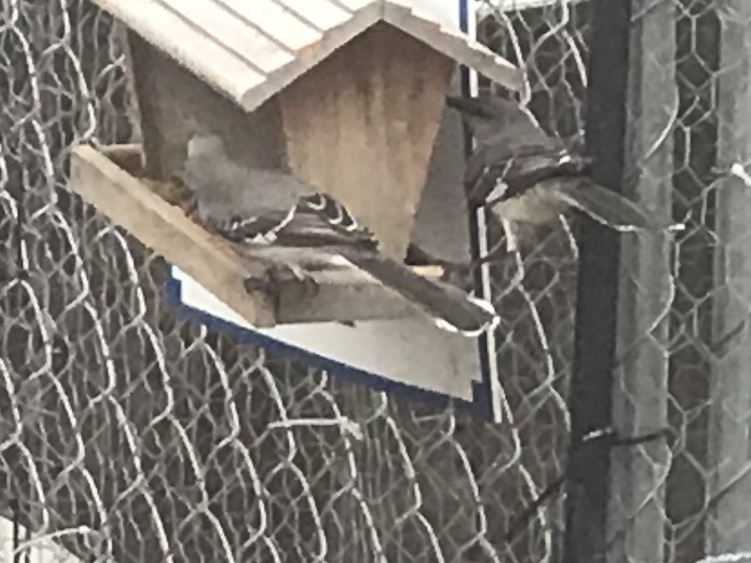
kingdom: Animalia
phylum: Chordata
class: Aves
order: Passeriformes
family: Mimidae
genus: Mimus
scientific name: Mimus polyglottos
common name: Northern mockingbird
